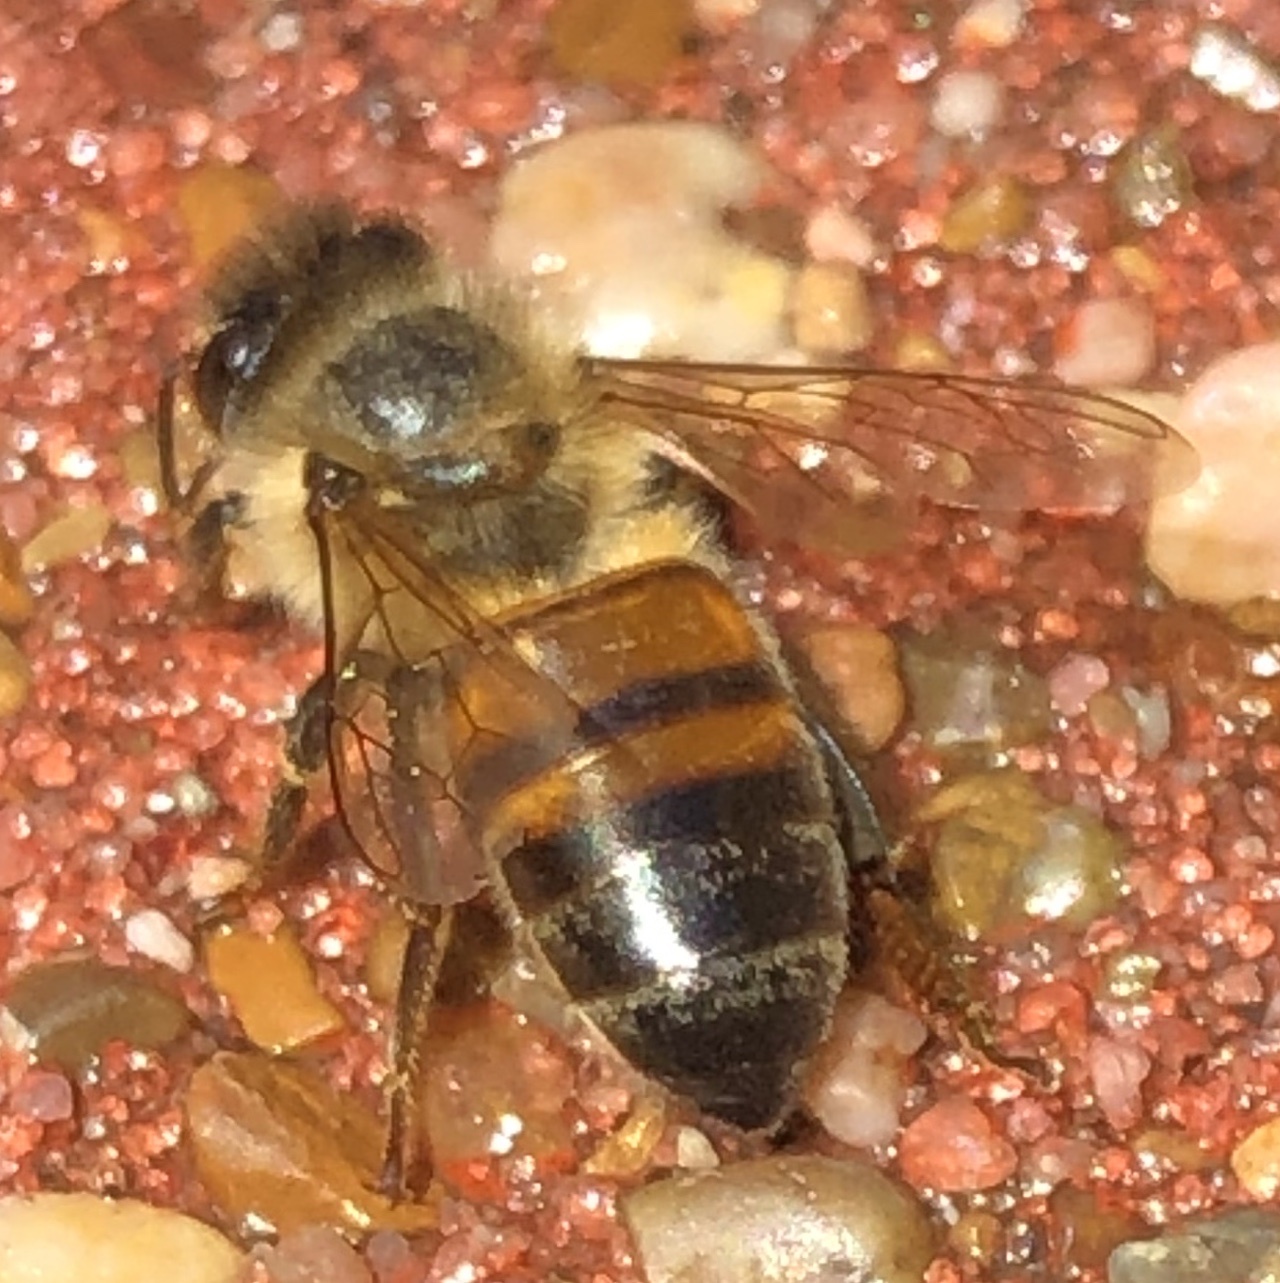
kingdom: Animalia
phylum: Arthropoda
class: Insecta
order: Hymenoptera
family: Apidae
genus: Apis
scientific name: Apis mellifera
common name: Honey bee
